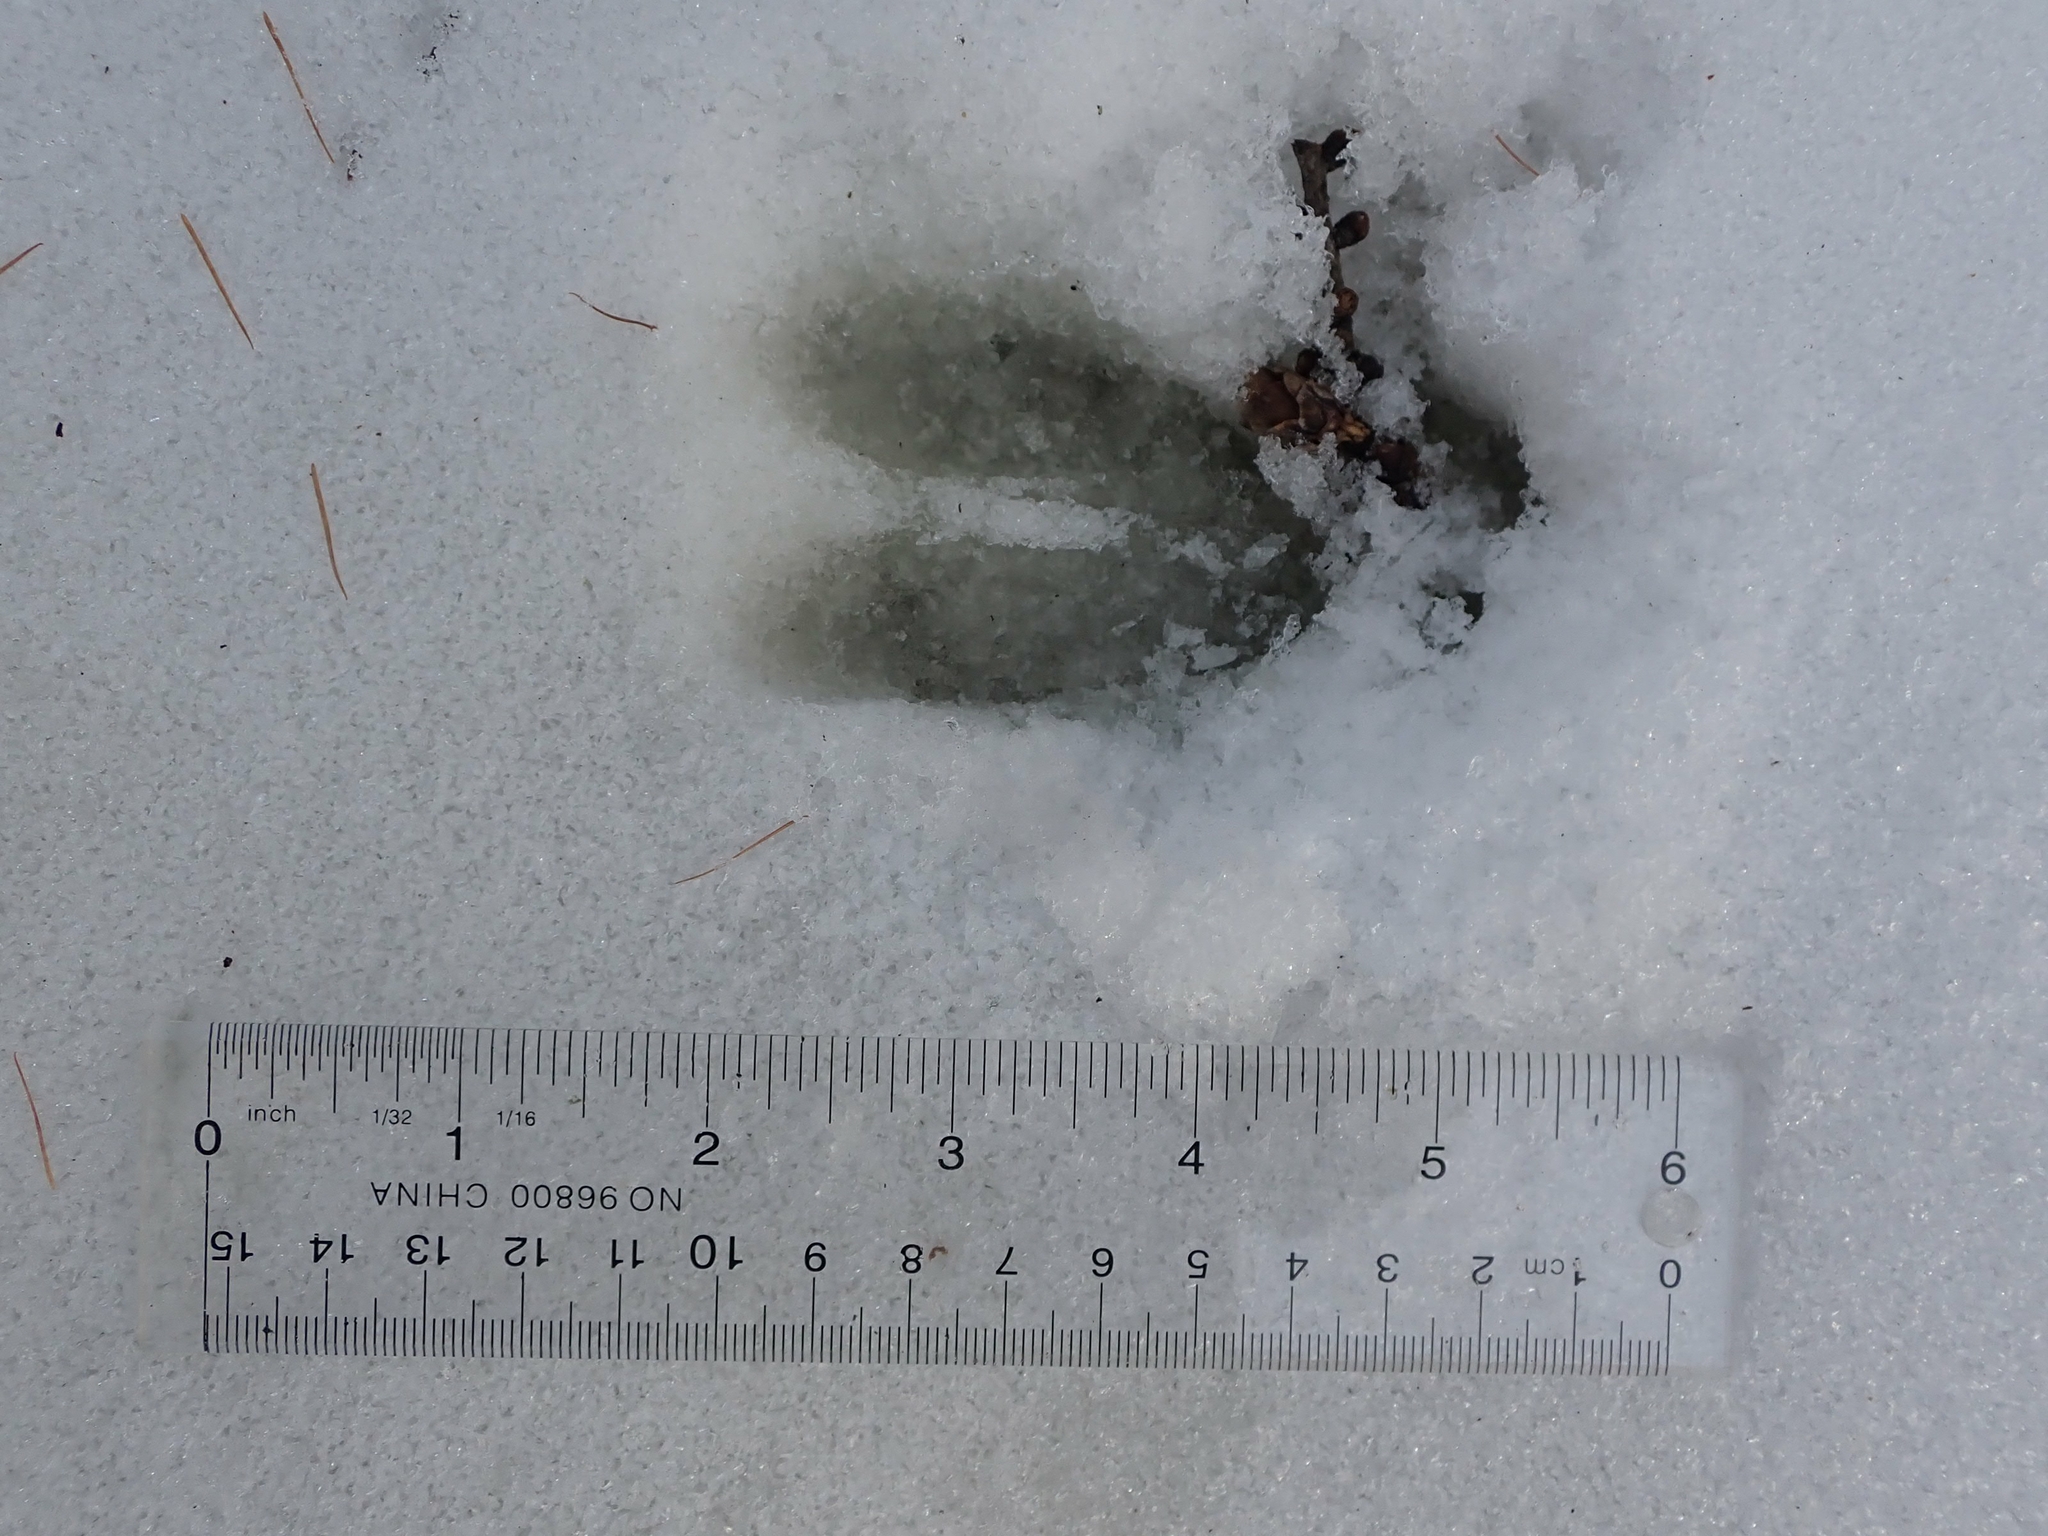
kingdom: Animalia
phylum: Chordata
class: Mammalia
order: Artiodactyla
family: Cervidae
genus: Odocoileus
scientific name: Odocoileus virginianus
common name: White-tailed deer
